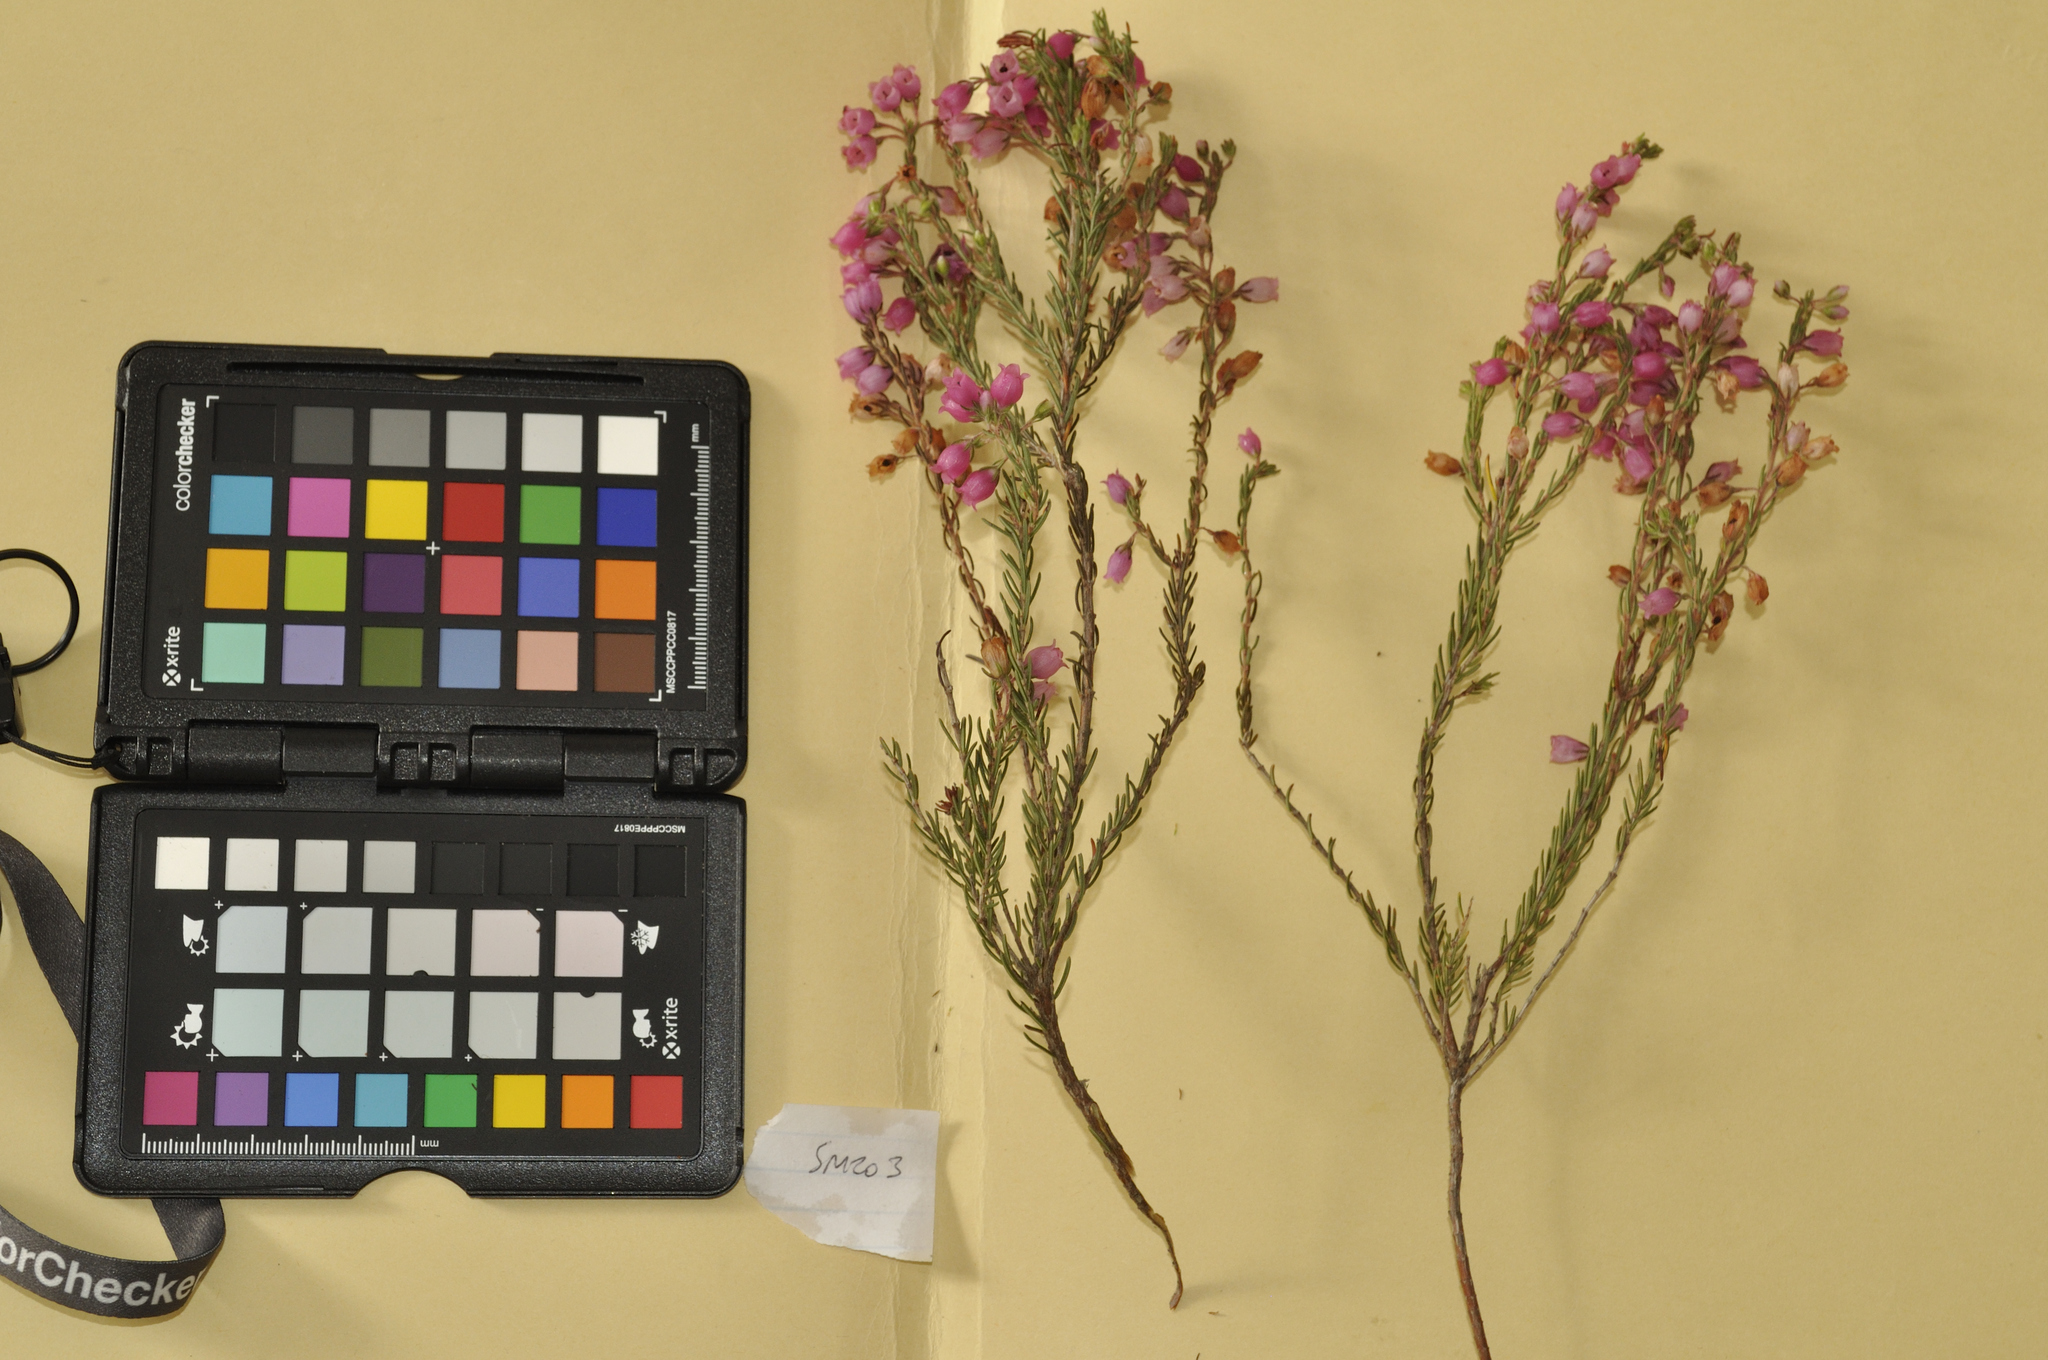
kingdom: Plantae
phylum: Tracheophyta
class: Magnoliopsida
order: Ericales
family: Ericaceae
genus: Erica
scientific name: Erica viscaria
